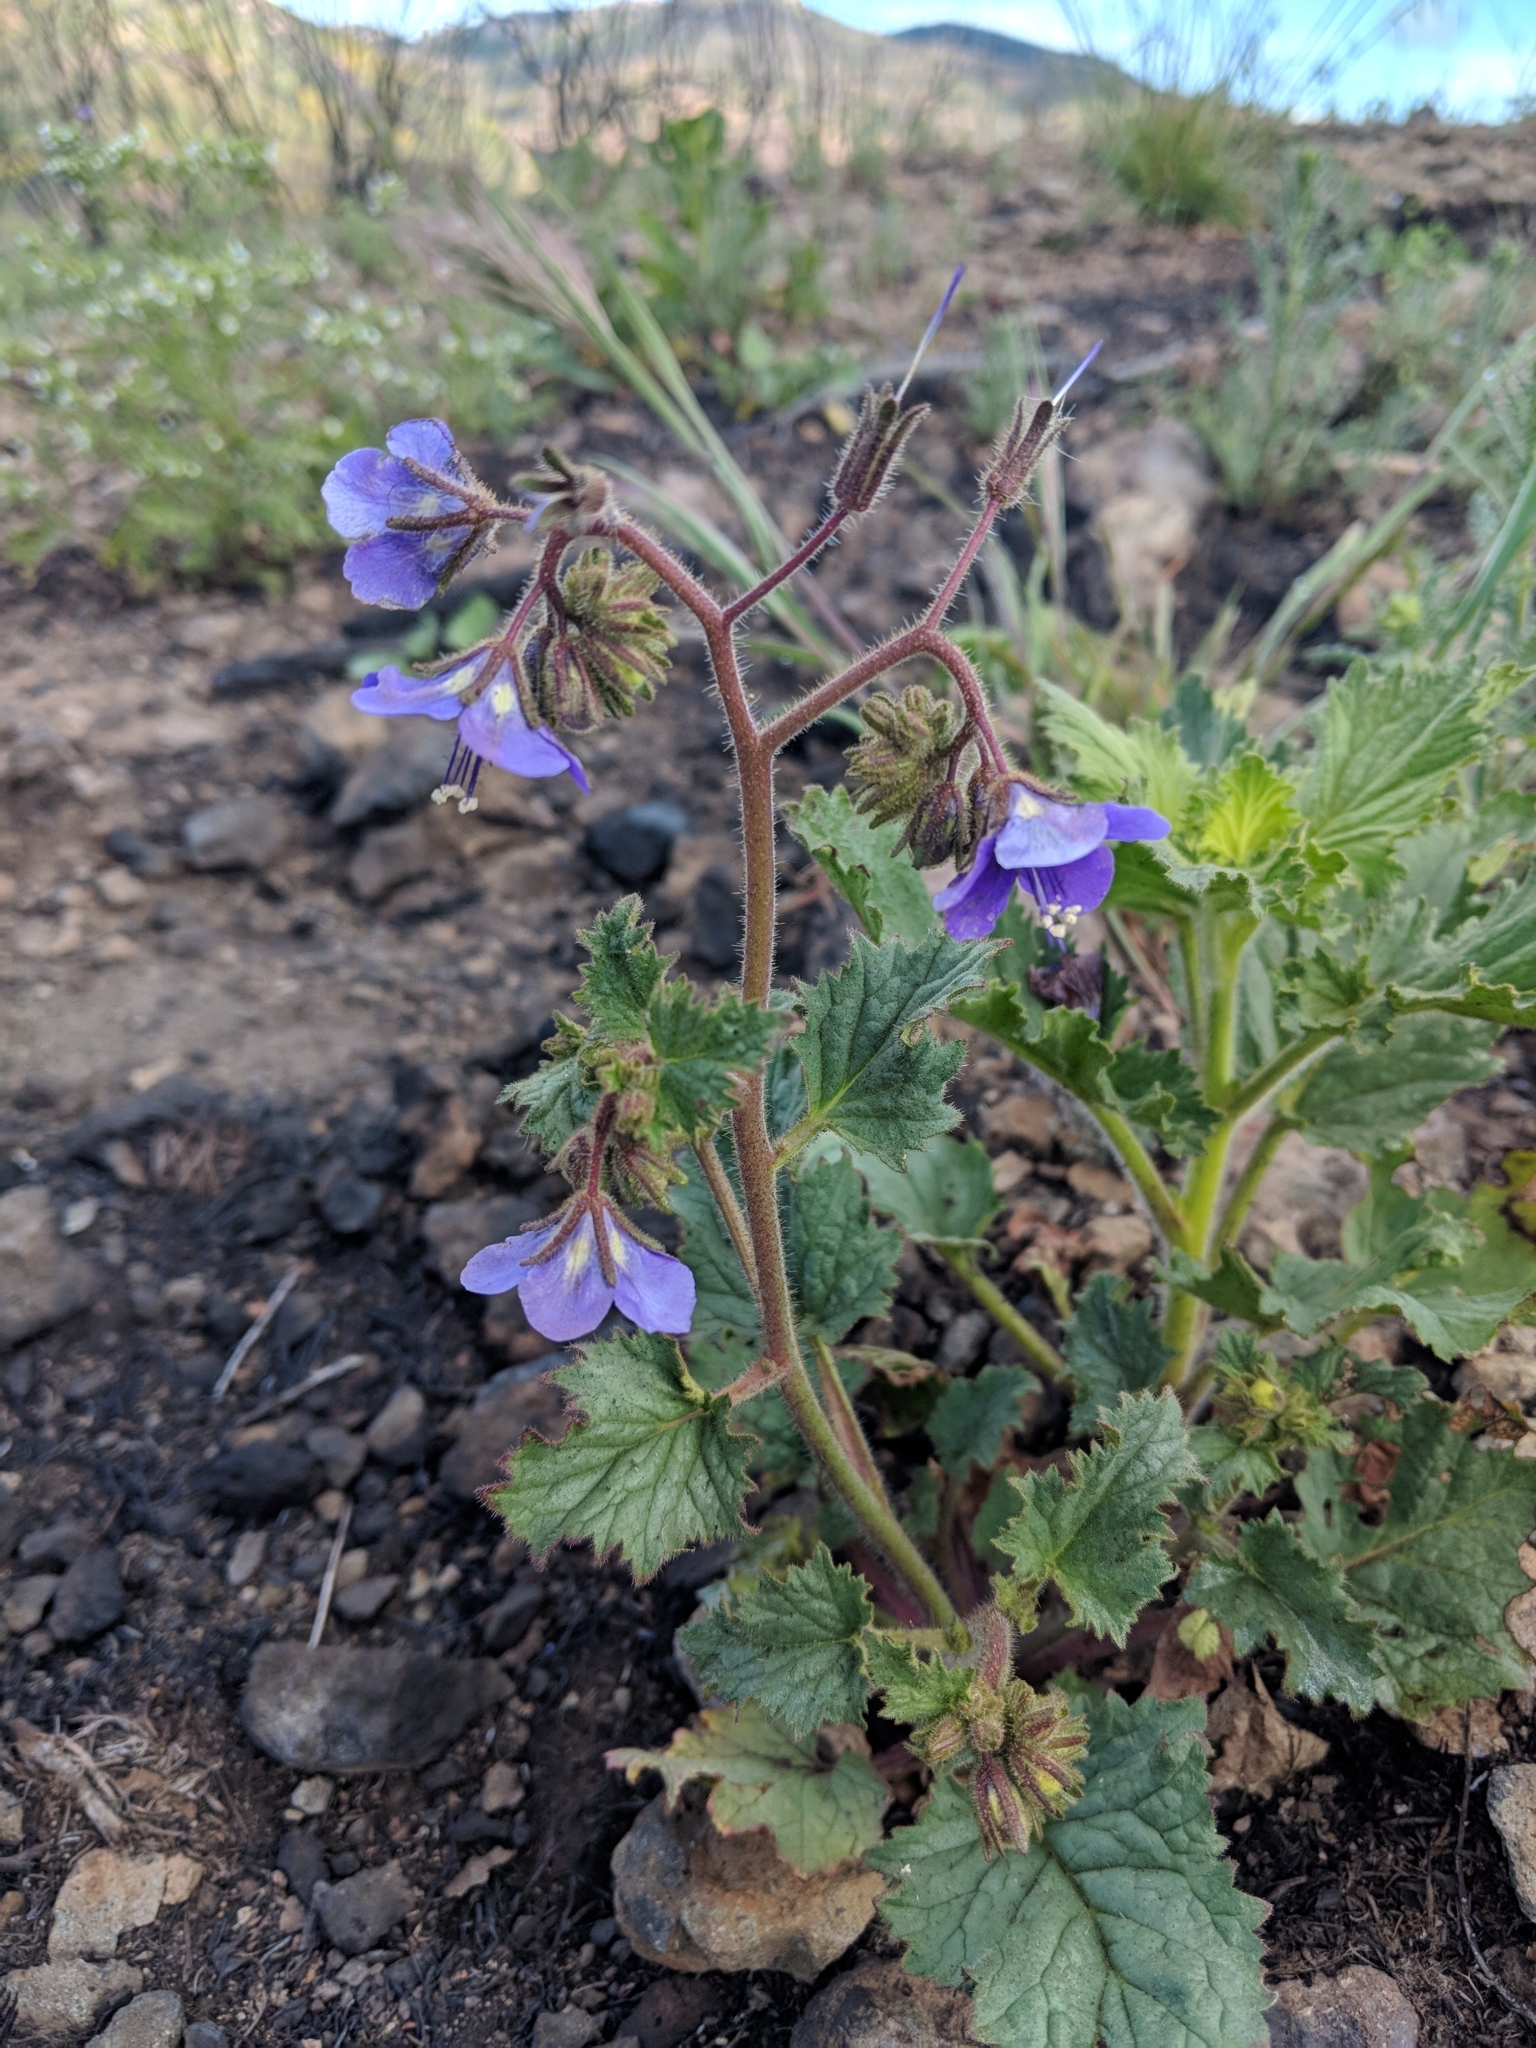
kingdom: Plantae
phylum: Tracheophyta
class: Magnoliopsida
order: Boraginales
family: Hydrophyllaceae
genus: Phacelia
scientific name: Phacelia parryi
